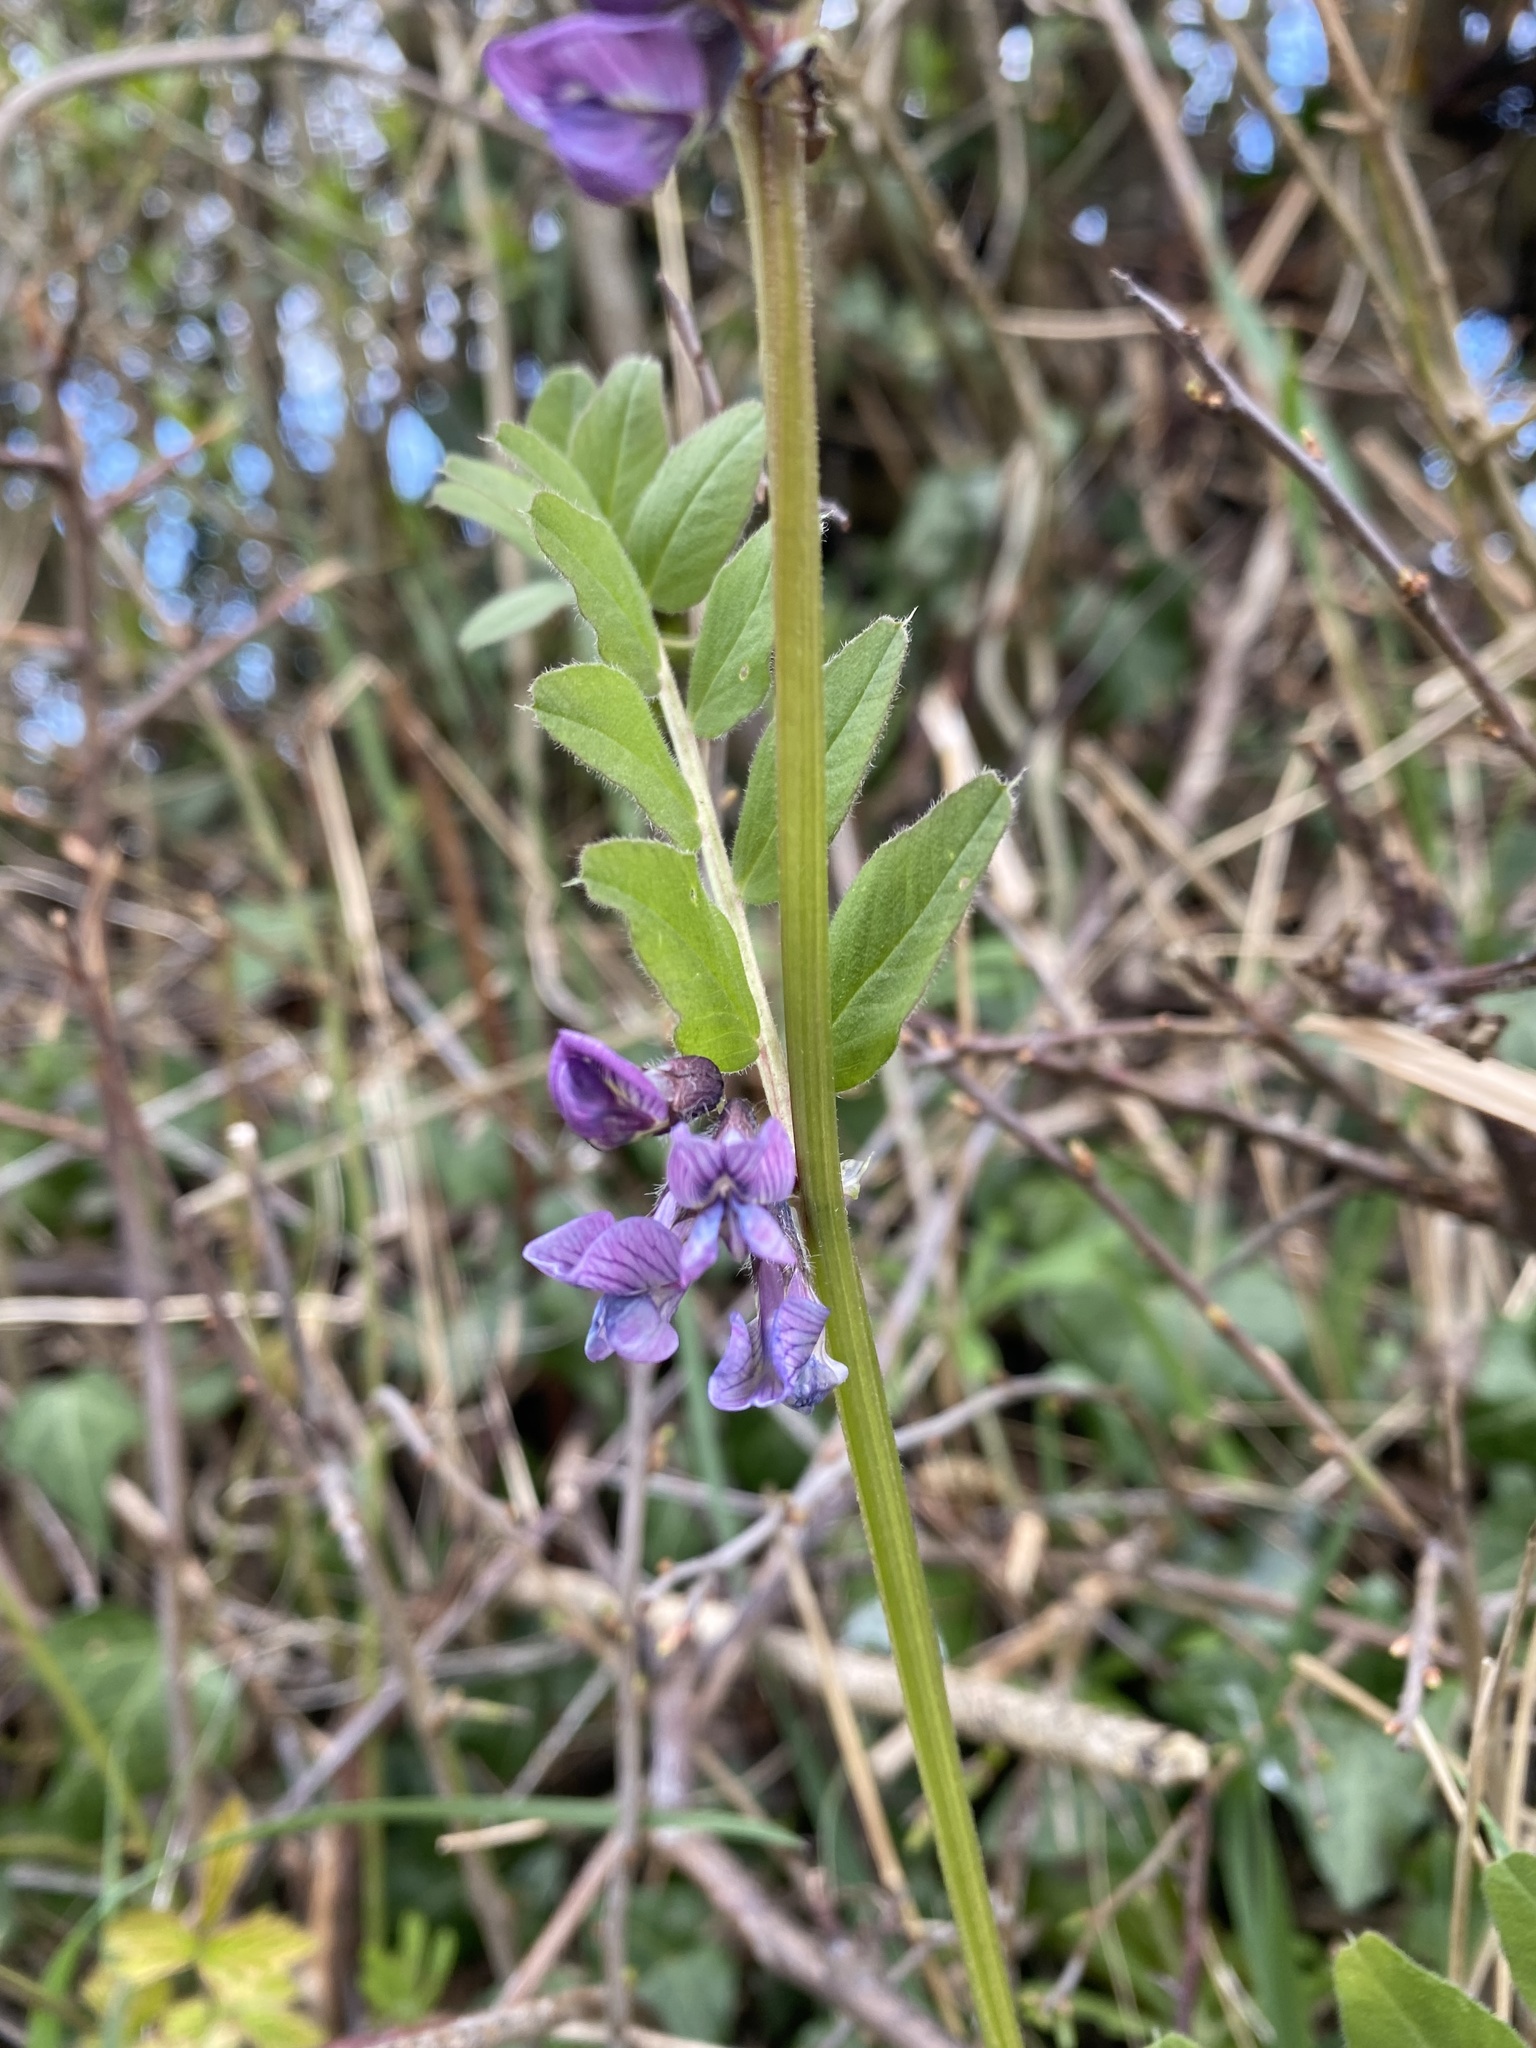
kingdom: Plantae
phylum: Tracheophyta
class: Magnoliopsida
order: Fabales
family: Fabaceae
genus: Vicia
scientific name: Vicia sepium
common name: Bush vetch
